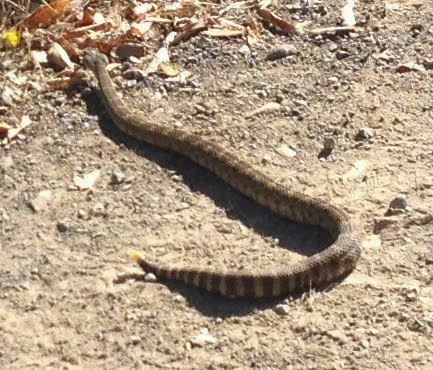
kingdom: Animalia
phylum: Chordata
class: Squamata
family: Viperidae
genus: Crotalus
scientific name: Crotalus oreganus
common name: Abyssus
